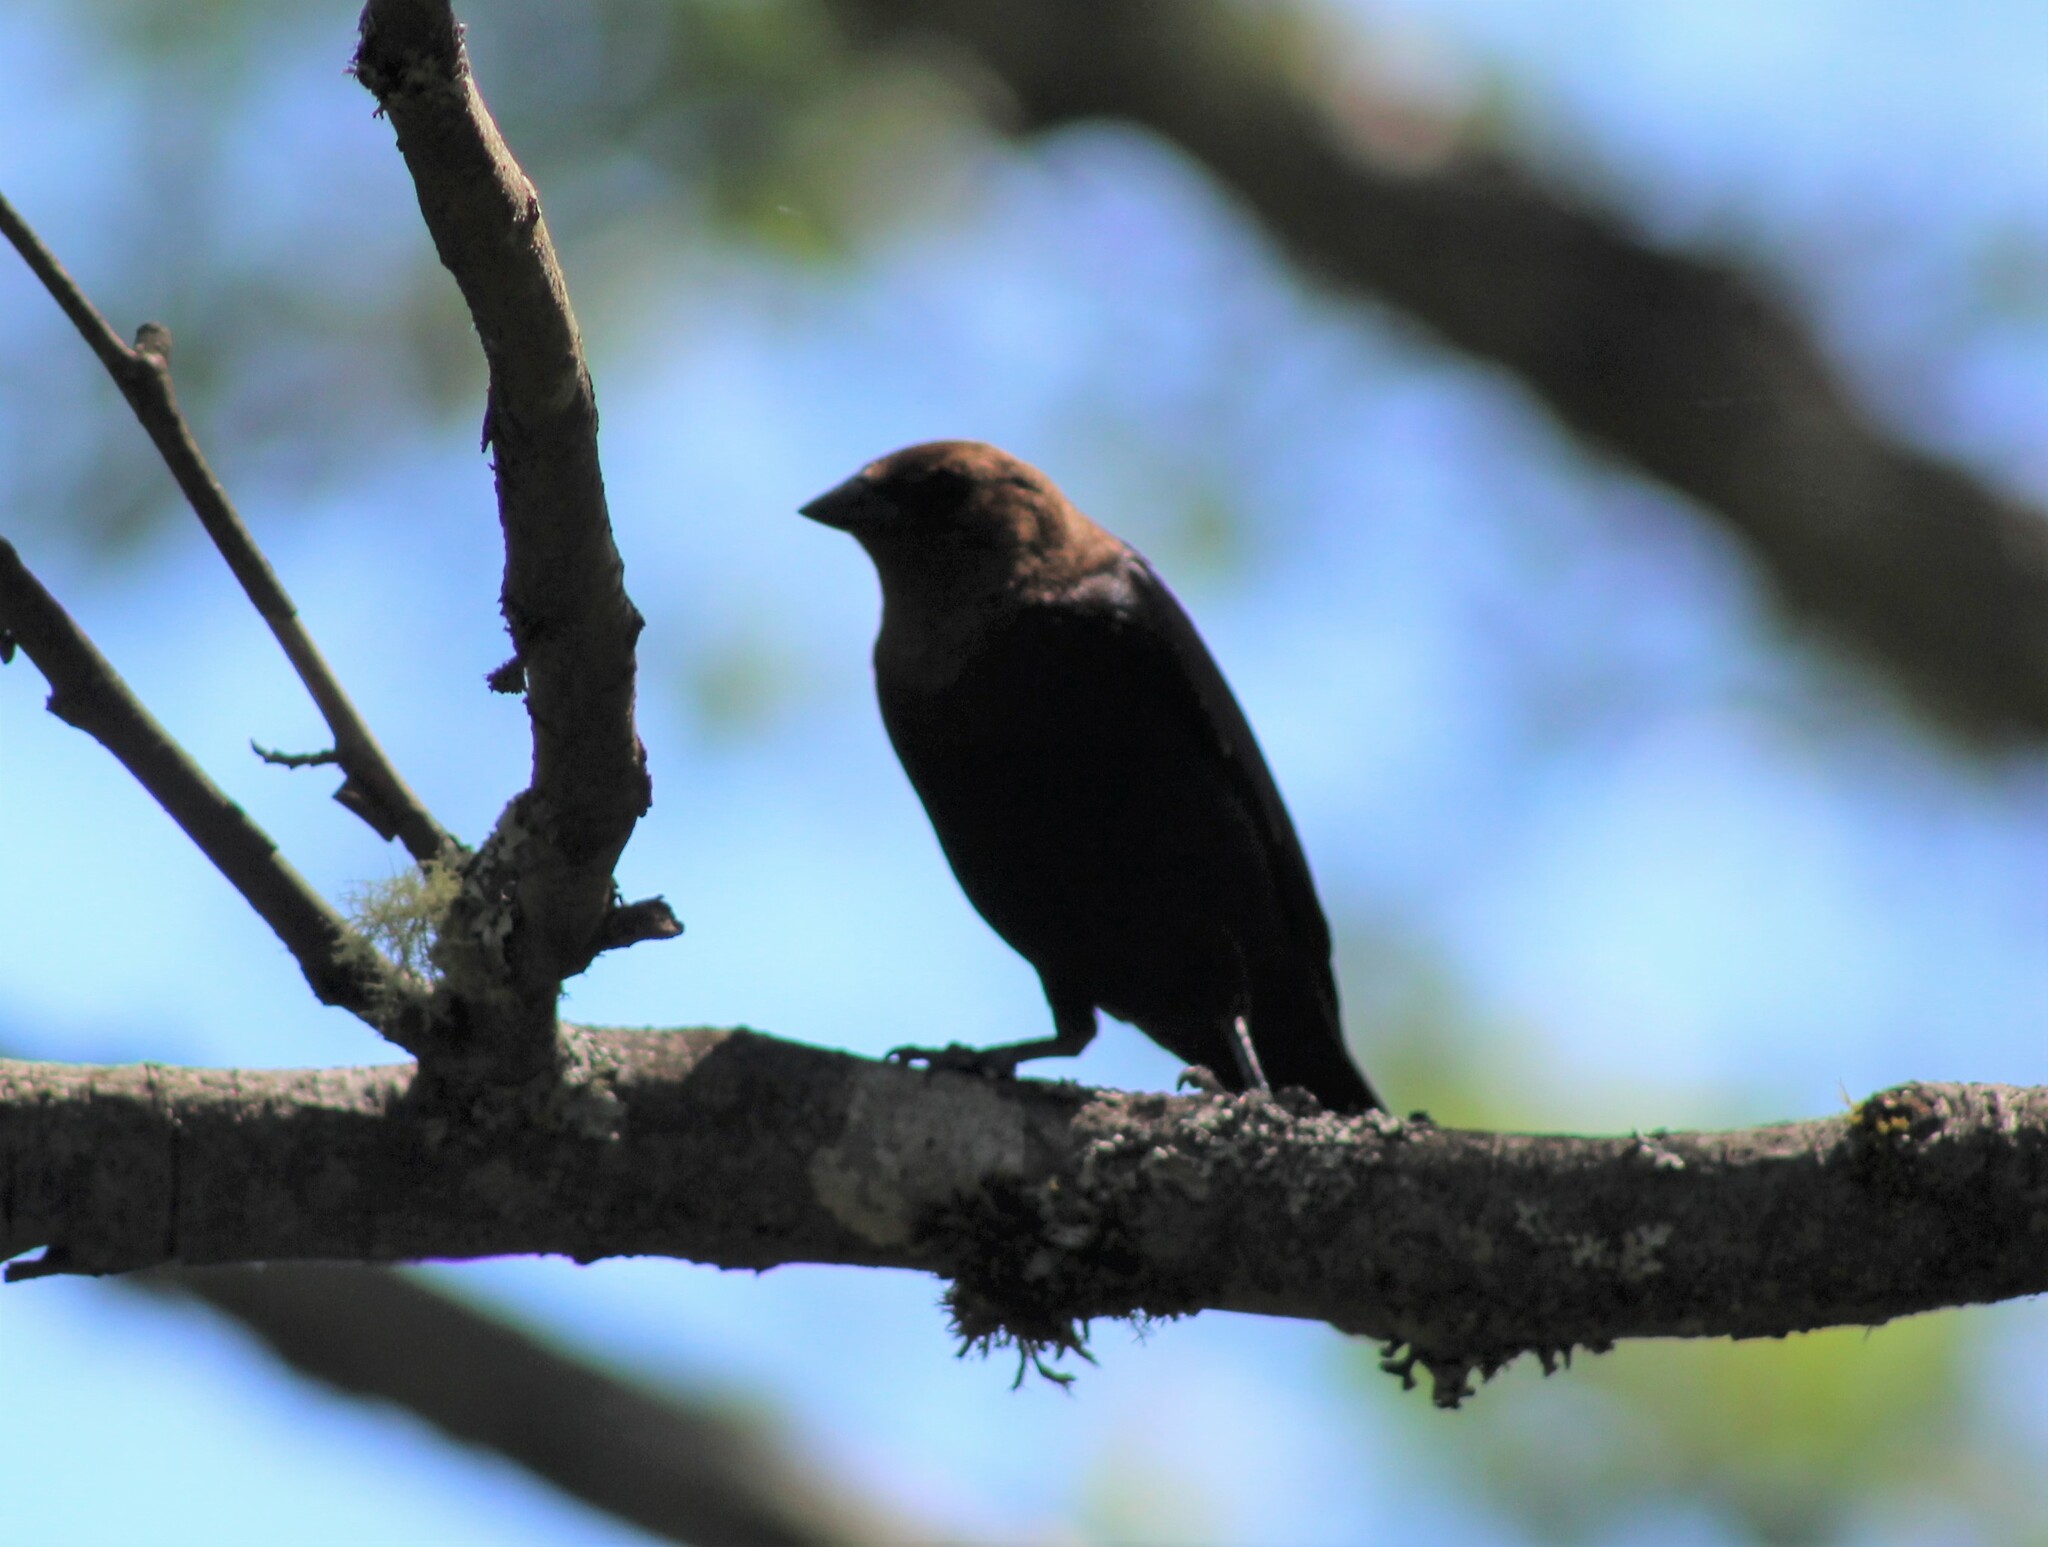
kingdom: Animalia
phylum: Chordata
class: Aves
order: Passeriformes
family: Icteridae
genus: Molothrus
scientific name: Molothrus ater
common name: Brown-headed cowbird
